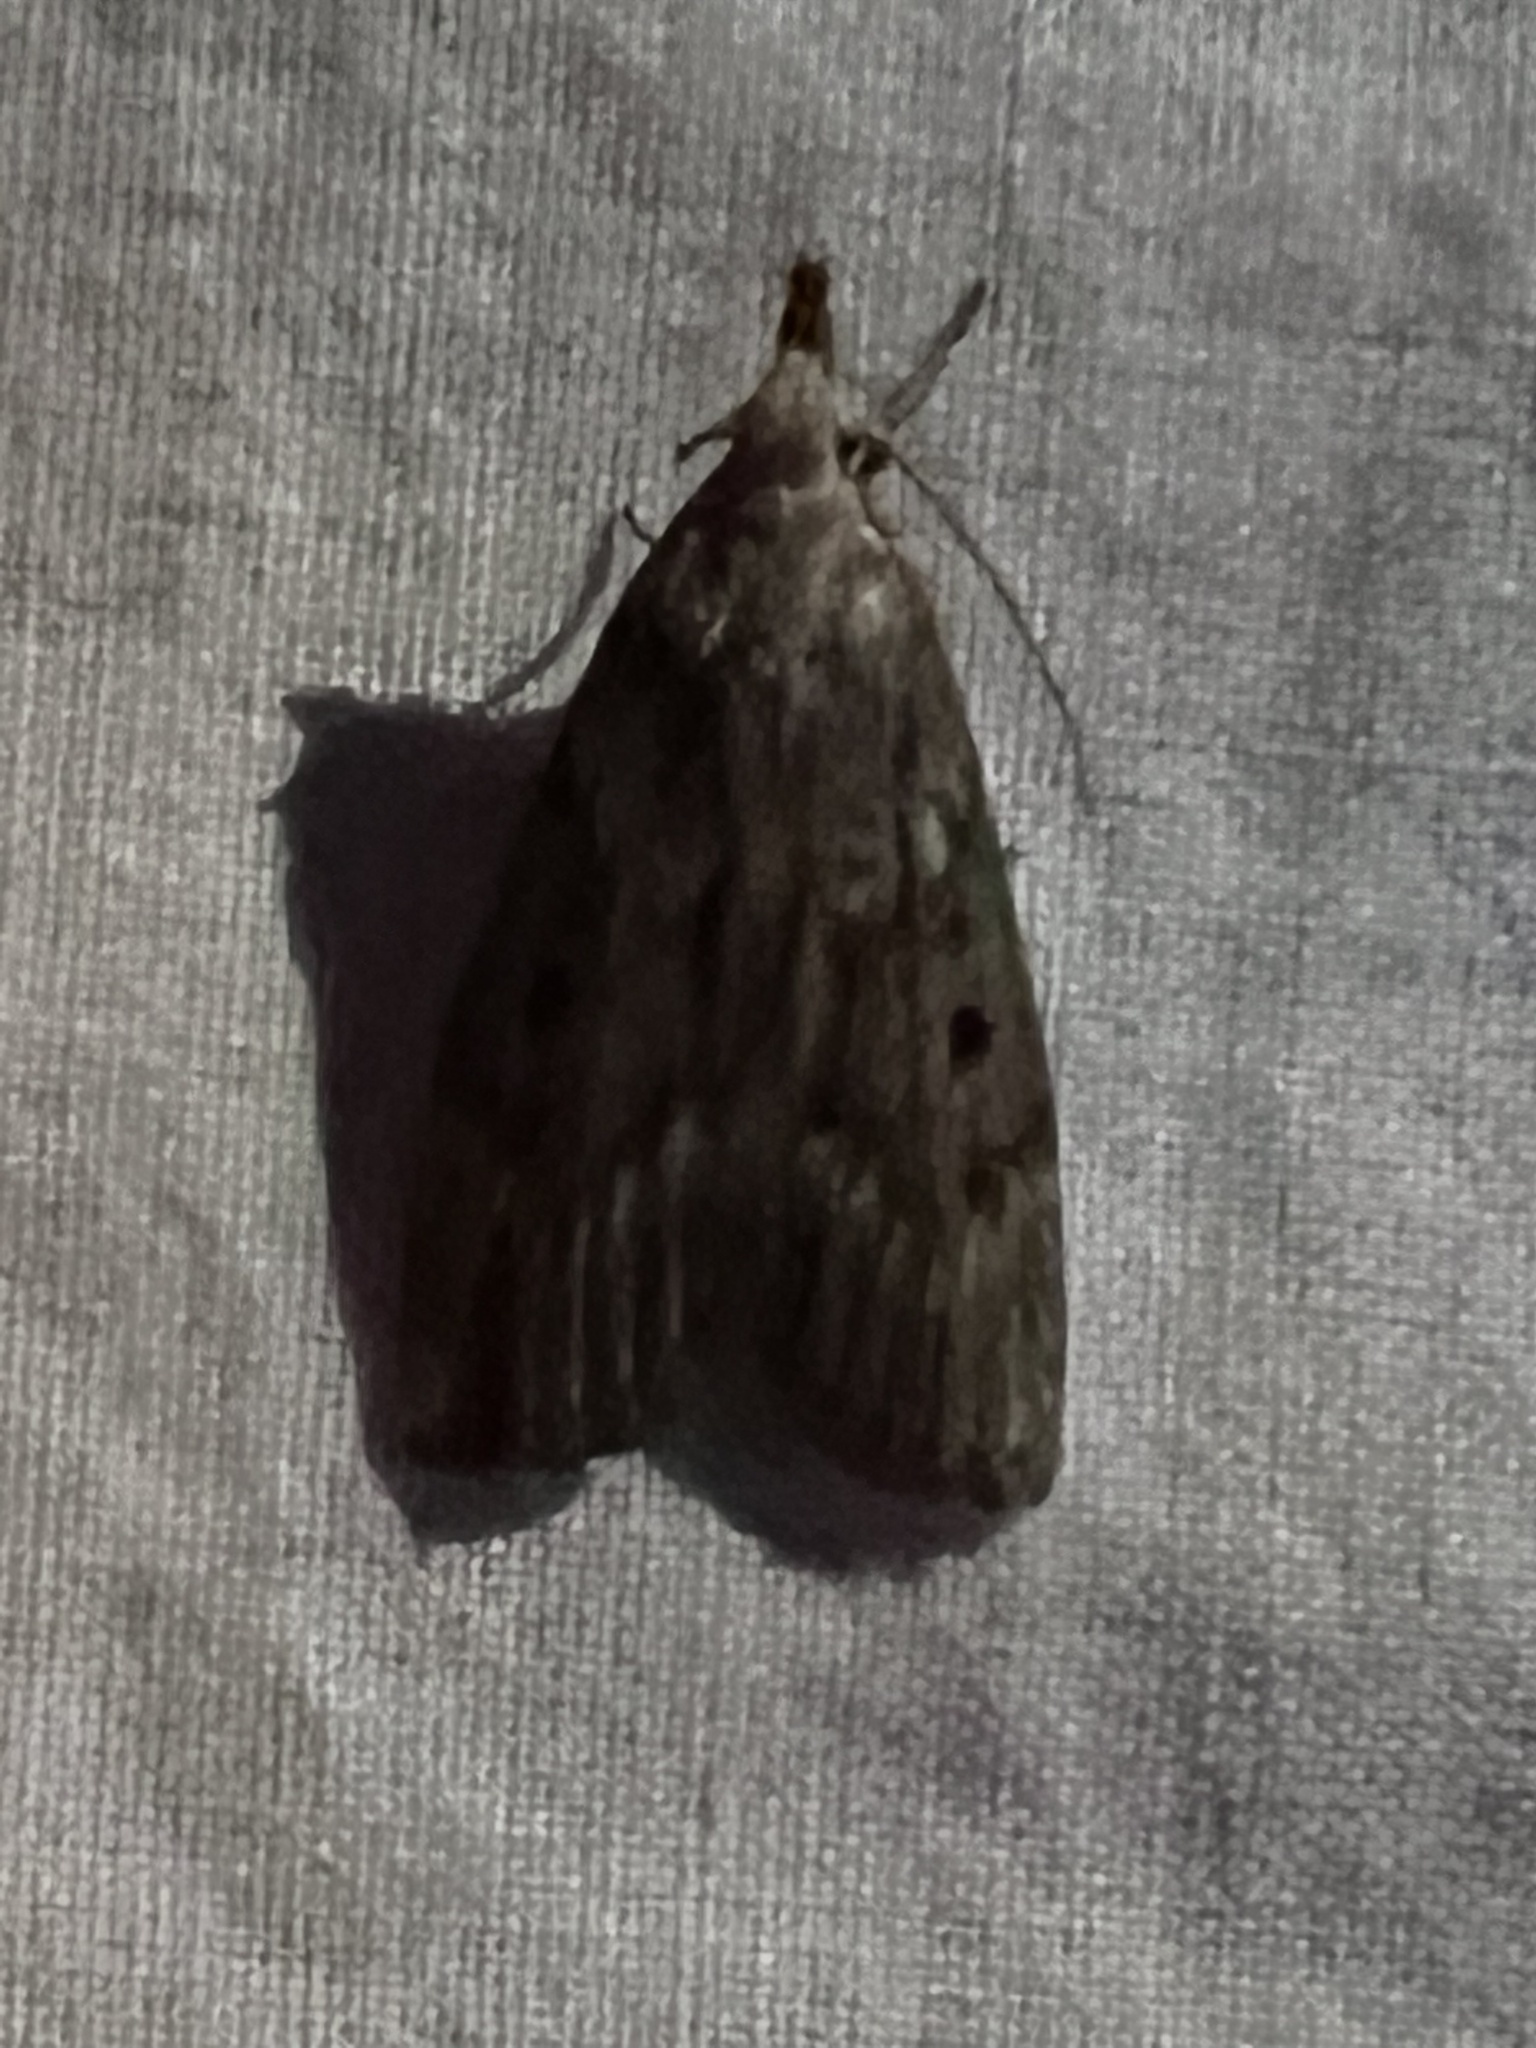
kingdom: Animalia
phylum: Arthropoda
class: Insecta
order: Lepidoptera
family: Pyralidae
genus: Aphomia
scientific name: Aphomia sociella
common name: Bee moth
